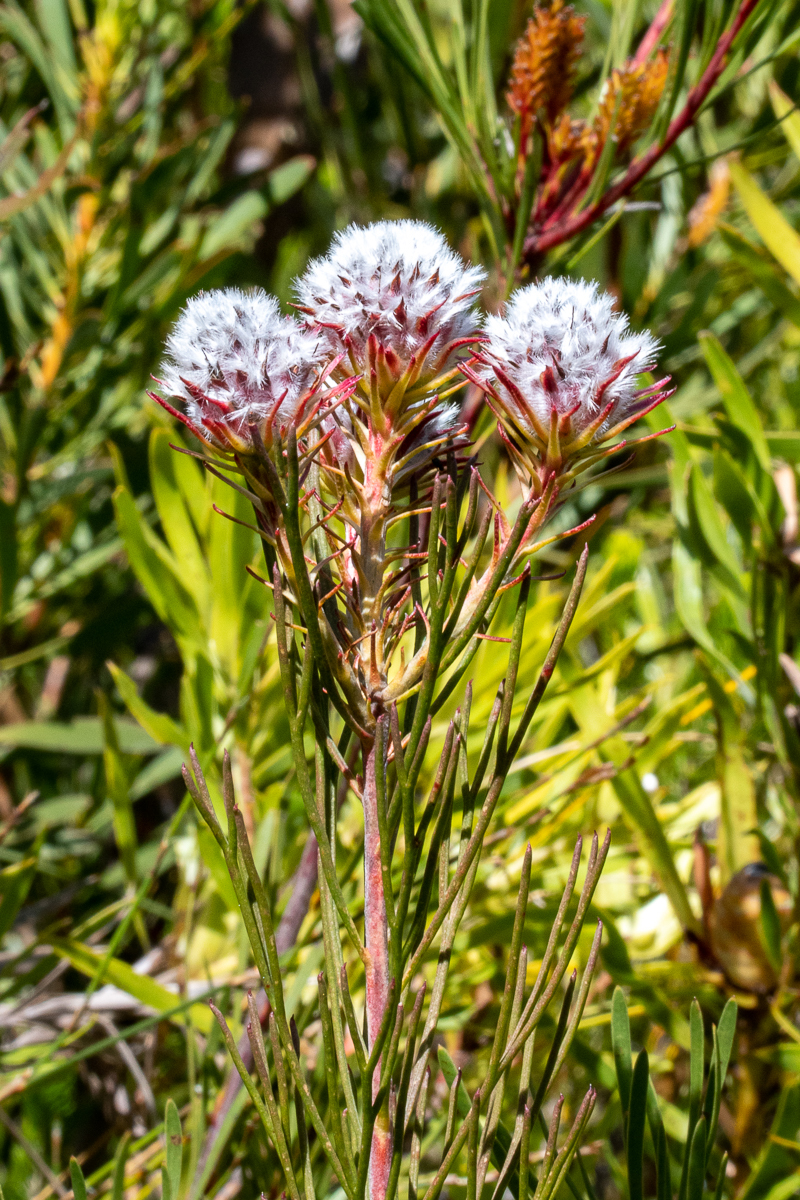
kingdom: Plantae
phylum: Tracheophyta
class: Magnoliopsida
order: Proteales
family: Proteaceae
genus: Serruria
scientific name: Serruria phylicoides
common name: Bearded spiderhead
